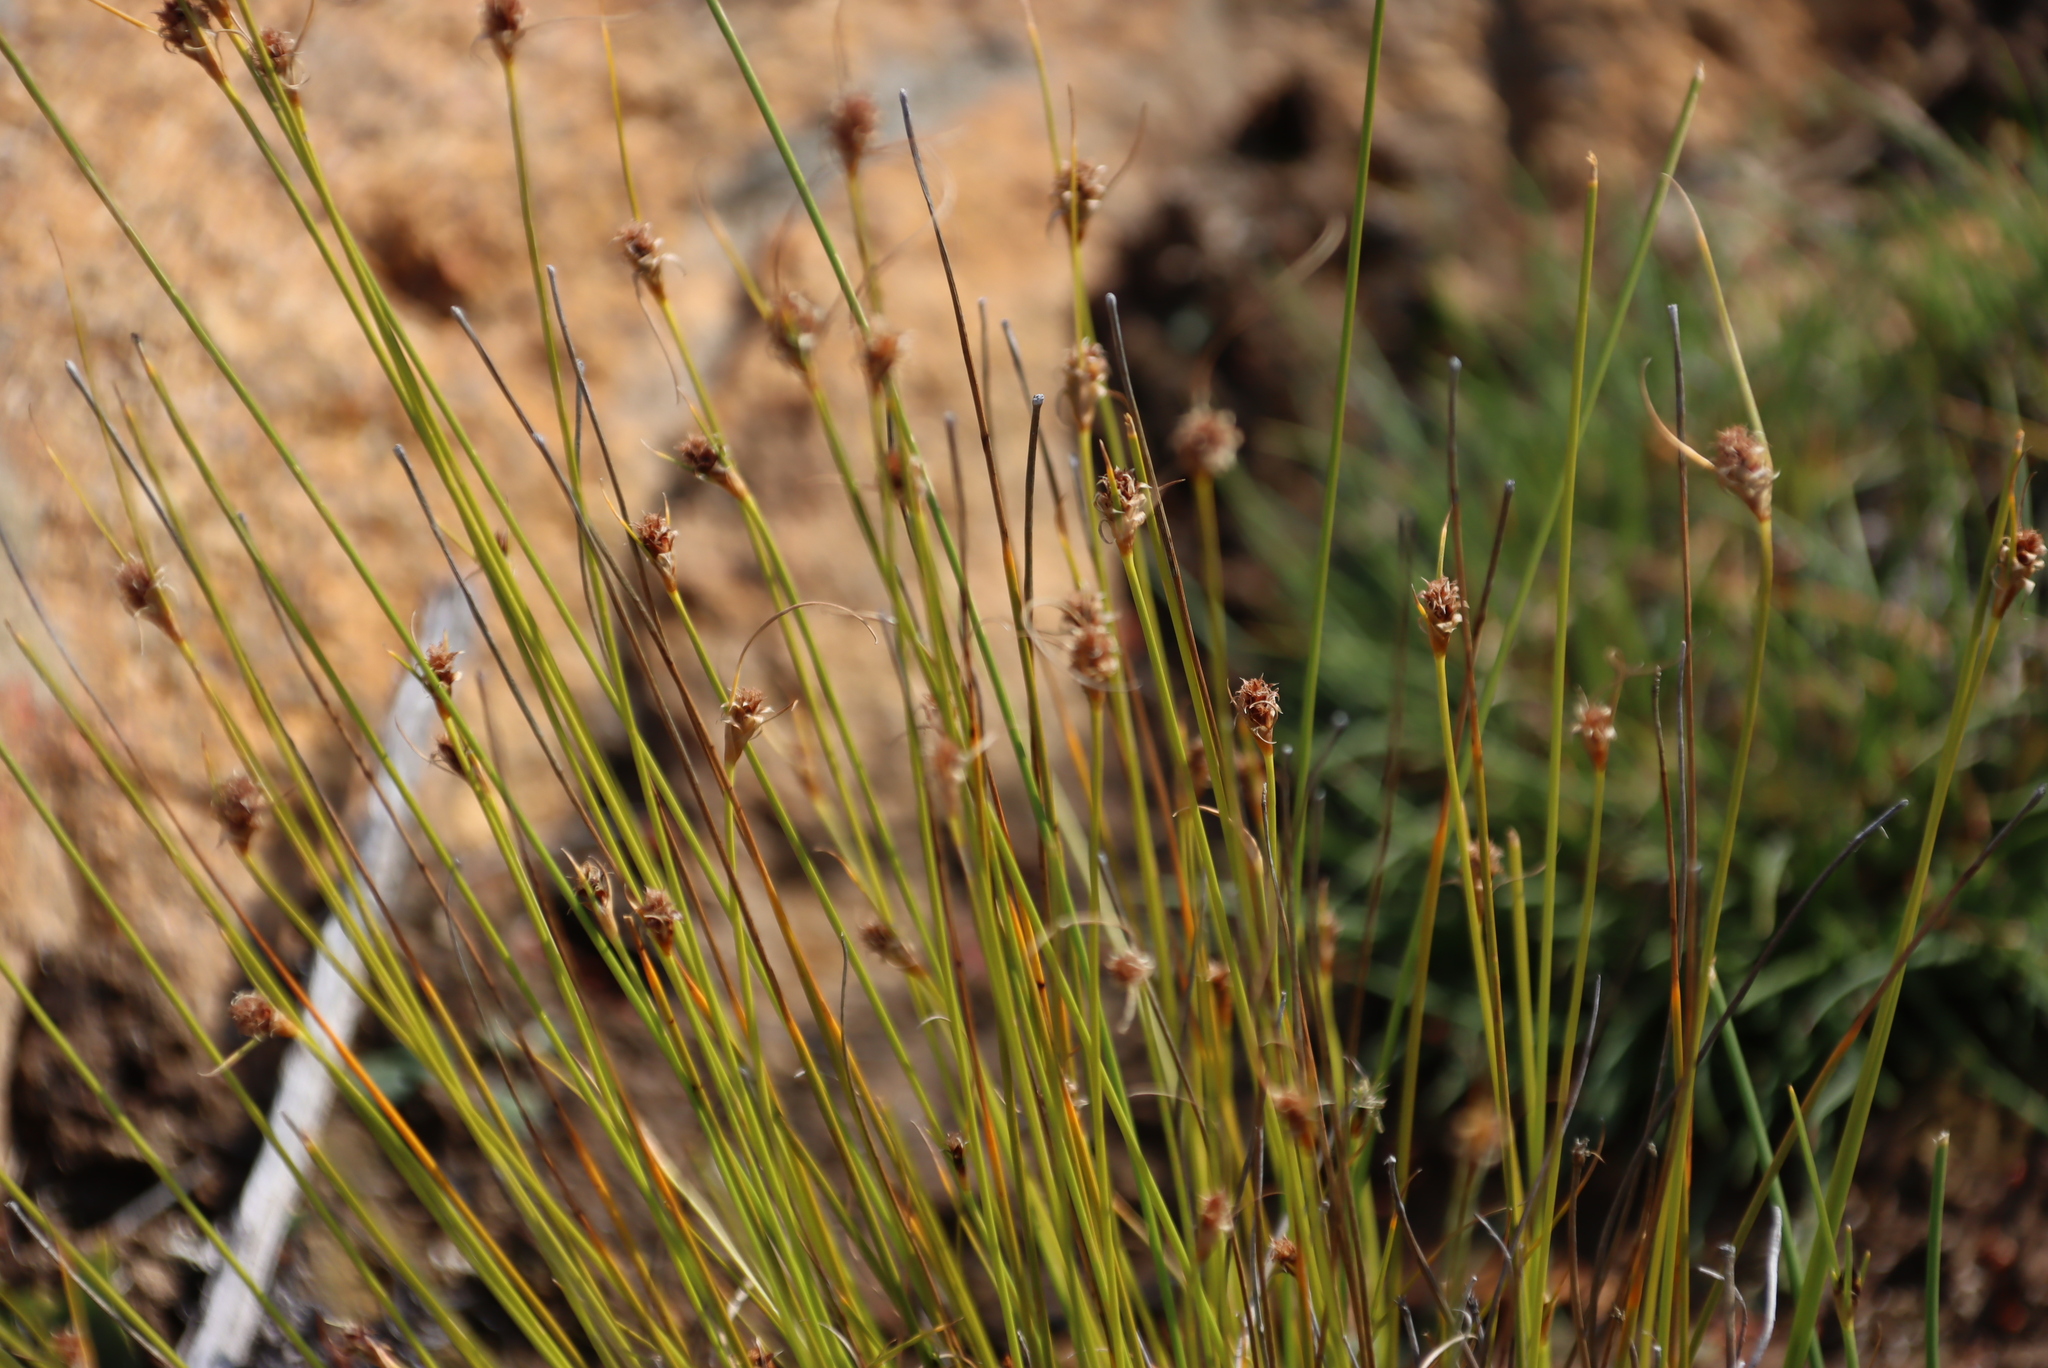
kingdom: Plantae
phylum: Tracheophyta
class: Liliopsida
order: Poales
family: Cyperaceae
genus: Ficinia
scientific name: Ficinia nigrescens
